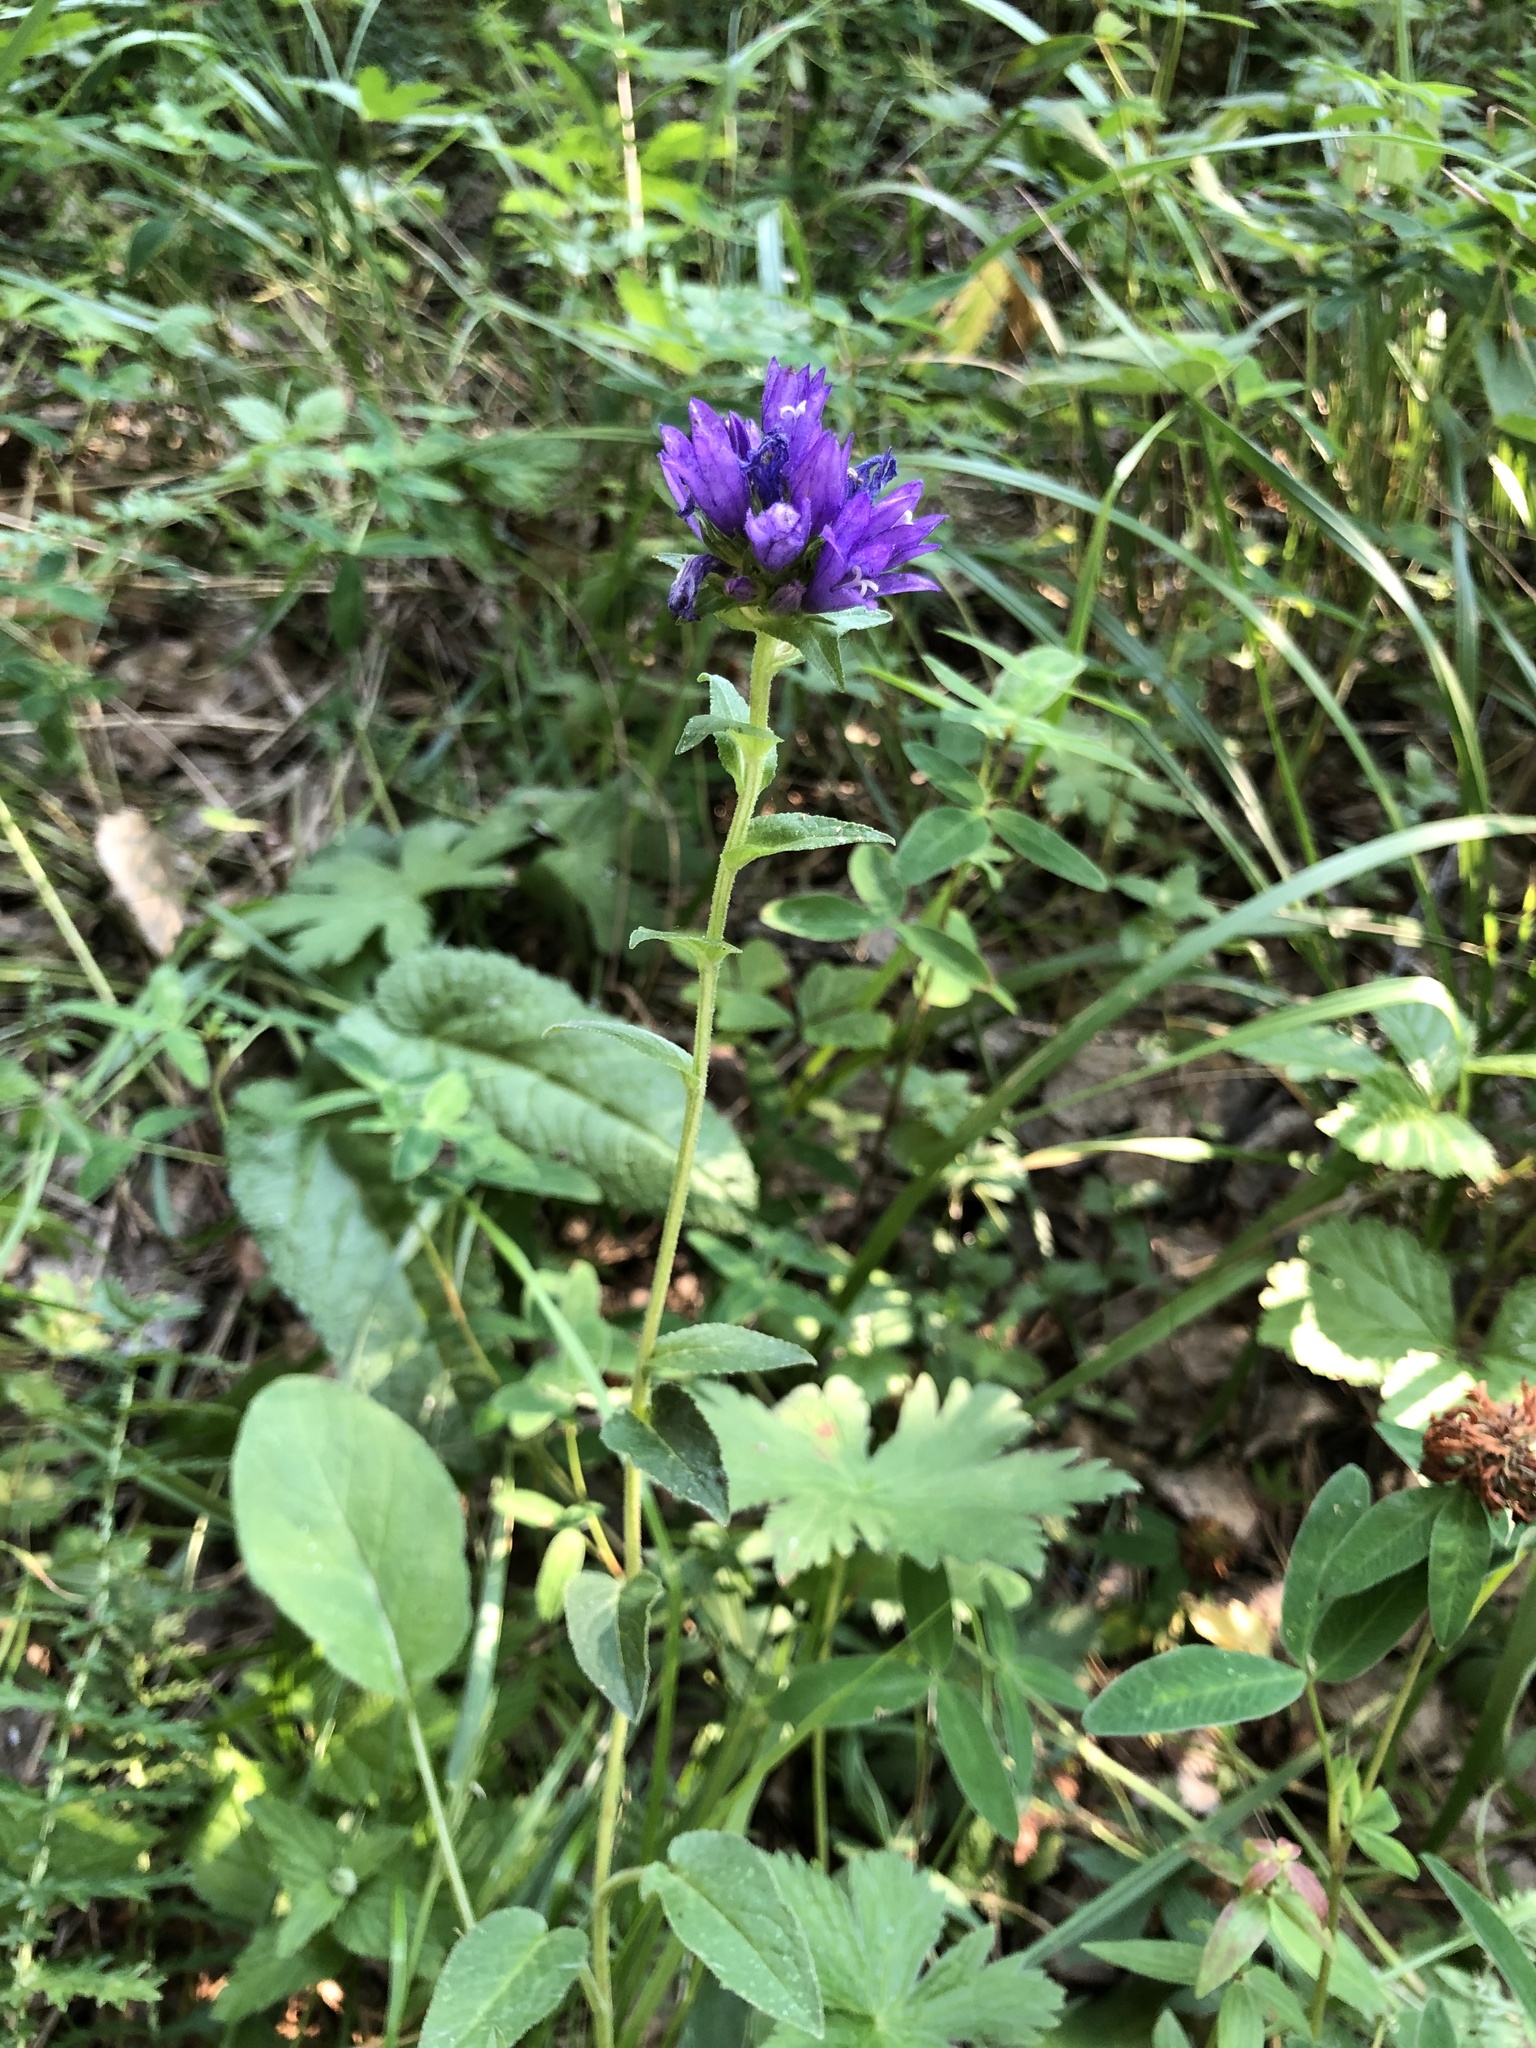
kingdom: Plantae
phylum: Tracheophyta
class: Magnoliopsida
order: Asterales
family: Campanulaceae
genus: Campanula
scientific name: Campanula glomerata
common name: Clustered bellflower
